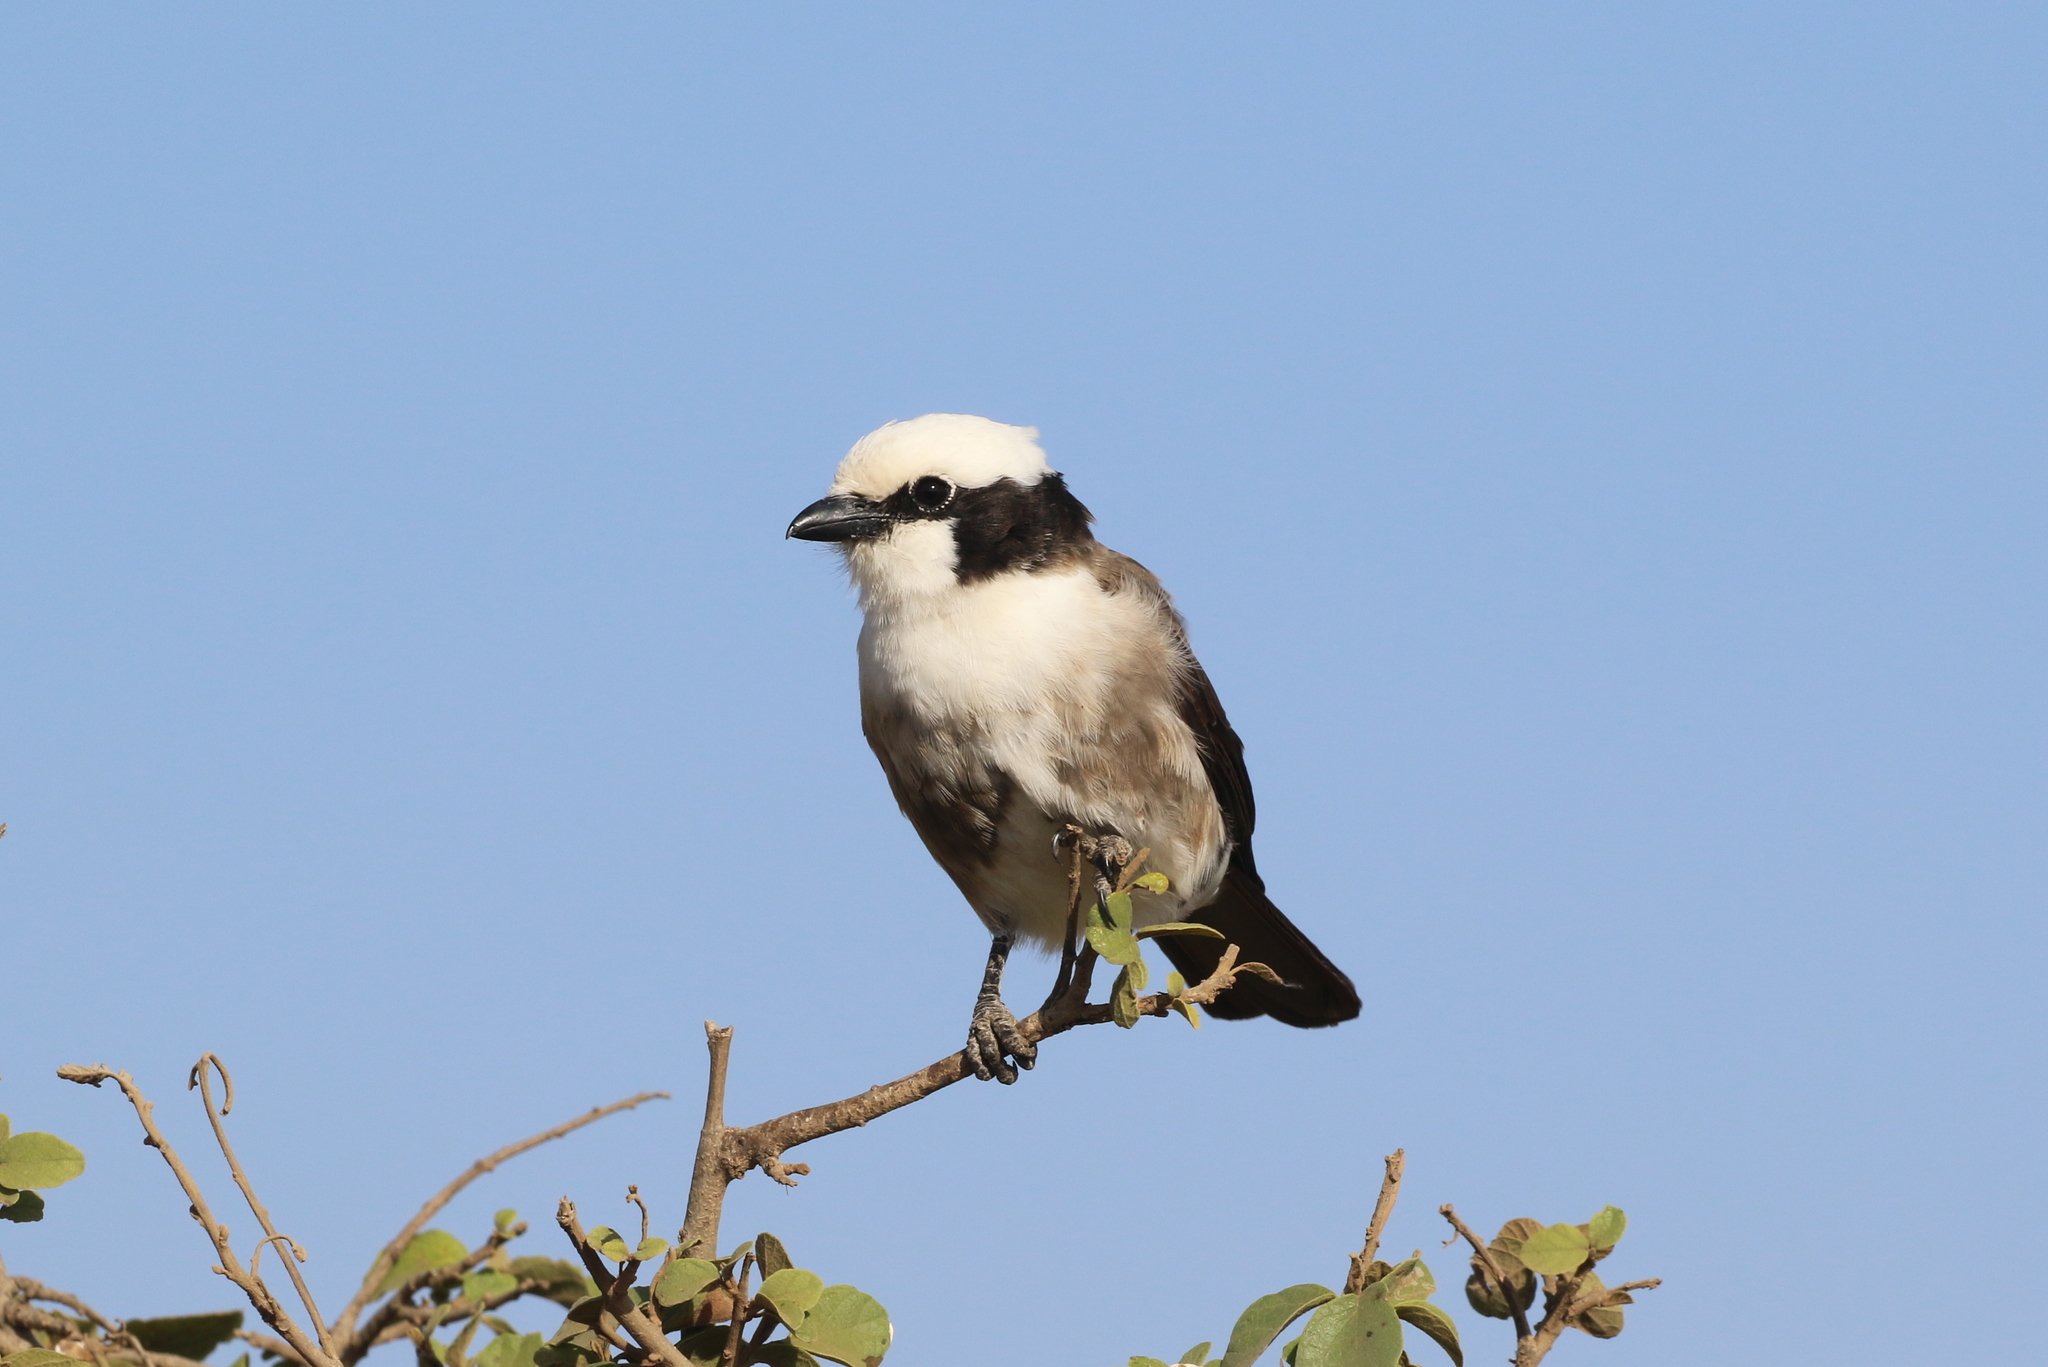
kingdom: Animalia
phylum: Chordata
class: Aves
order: Passeriformes
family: Laniidae
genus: Eurocephalus
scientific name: Eurocephalus ruppelli
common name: Northern white-crowned shrike
